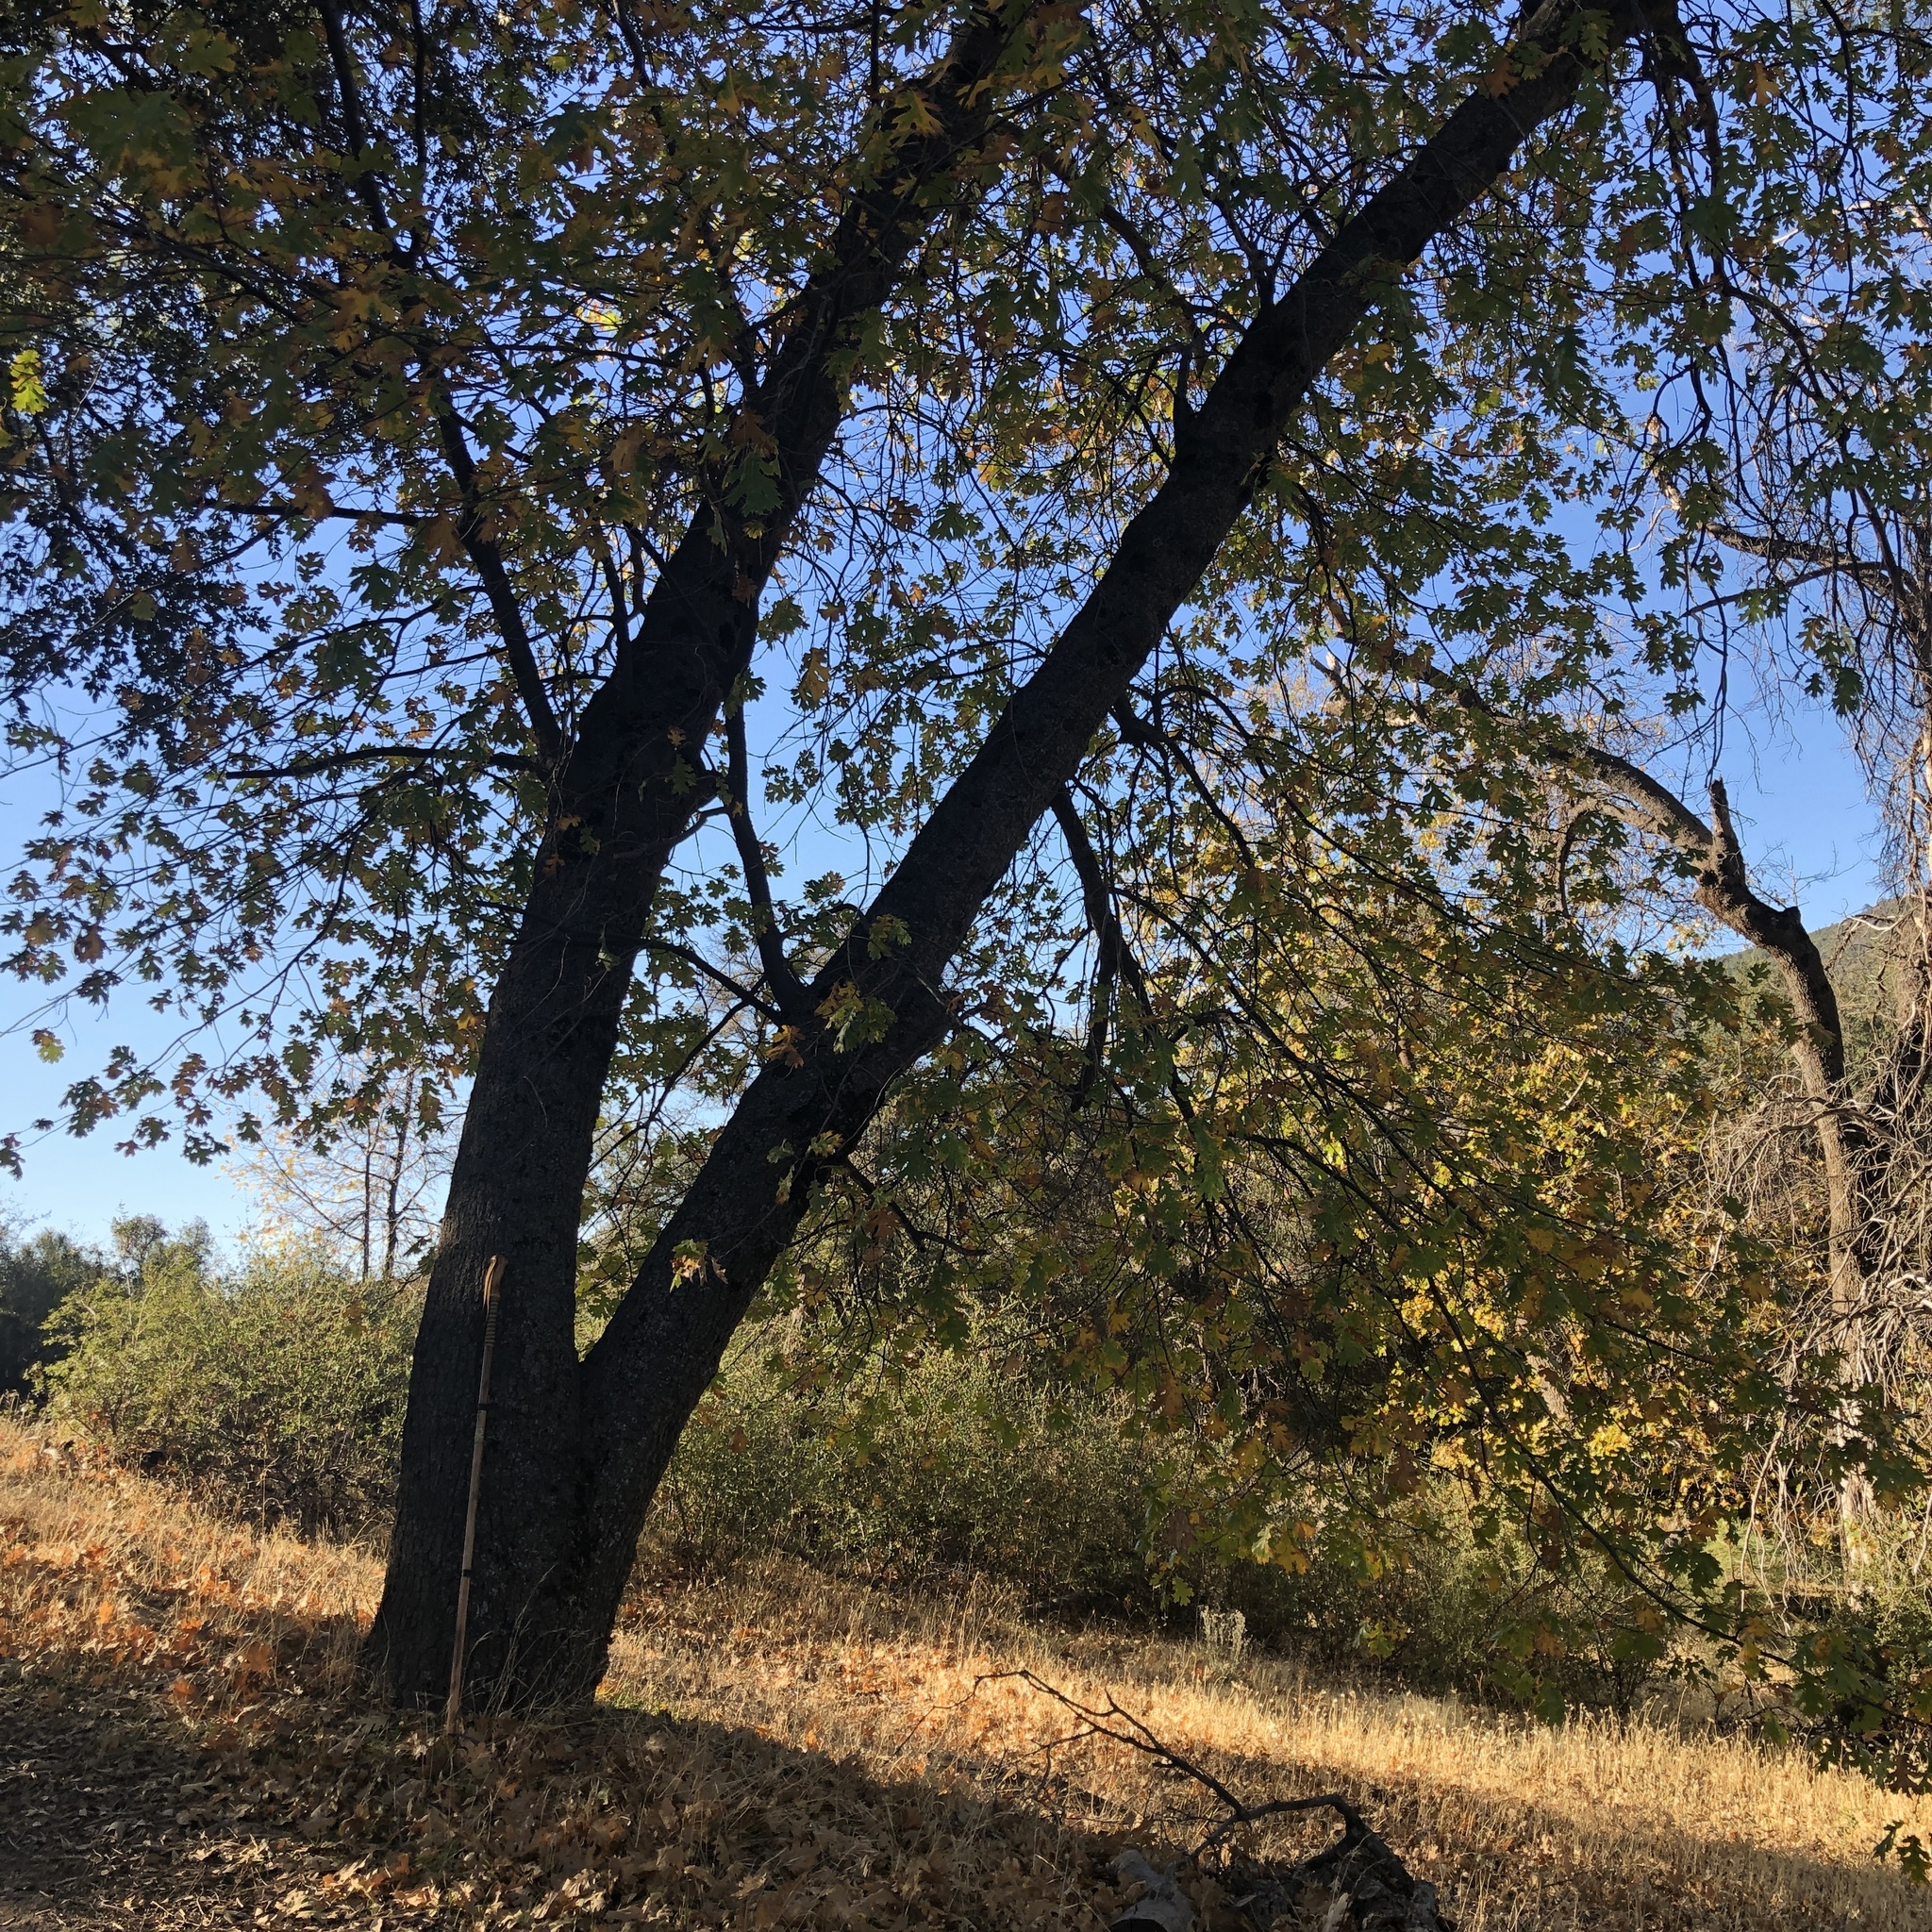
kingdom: Plantae
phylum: Tracheophyta
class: Magnoliopsida
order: Fagales
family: Fagaceae
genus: Quercus
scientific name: Quercus kelloggii
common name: California black oak
